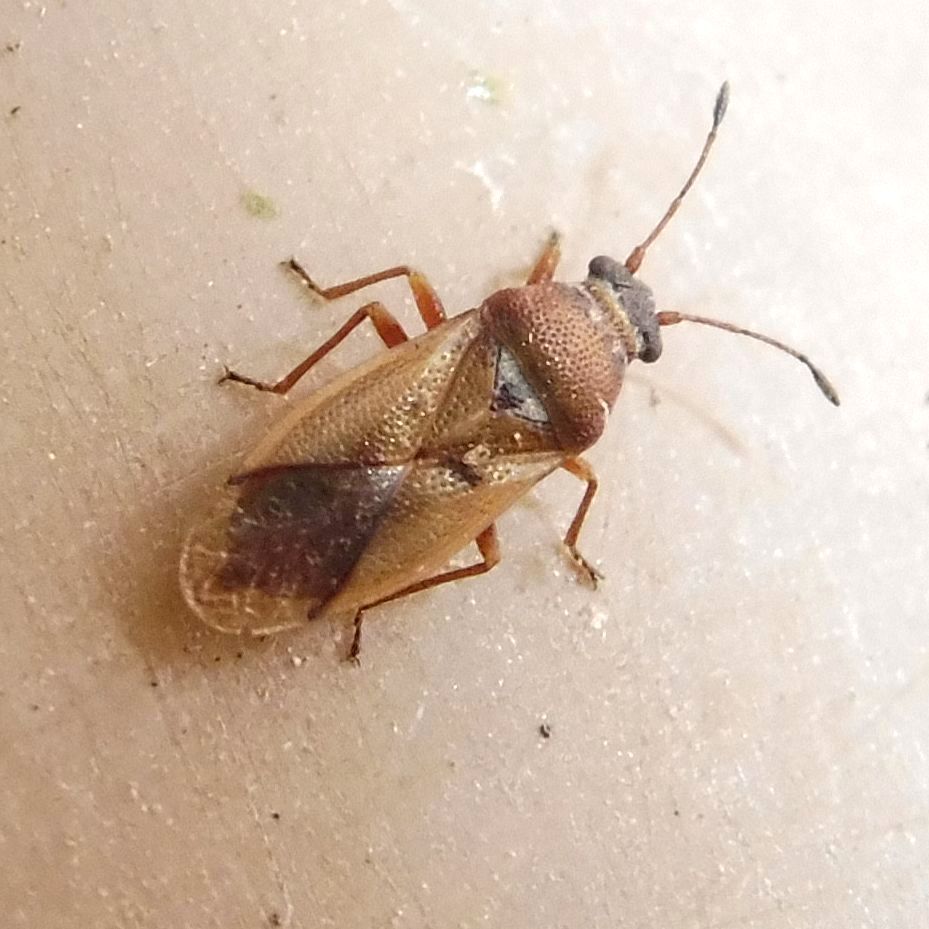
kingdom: Animalia
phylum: Arthropoda
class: Insecta
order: Hemiptera
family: Cymidae
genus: Cymus
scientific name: Cymus melanocephalus
